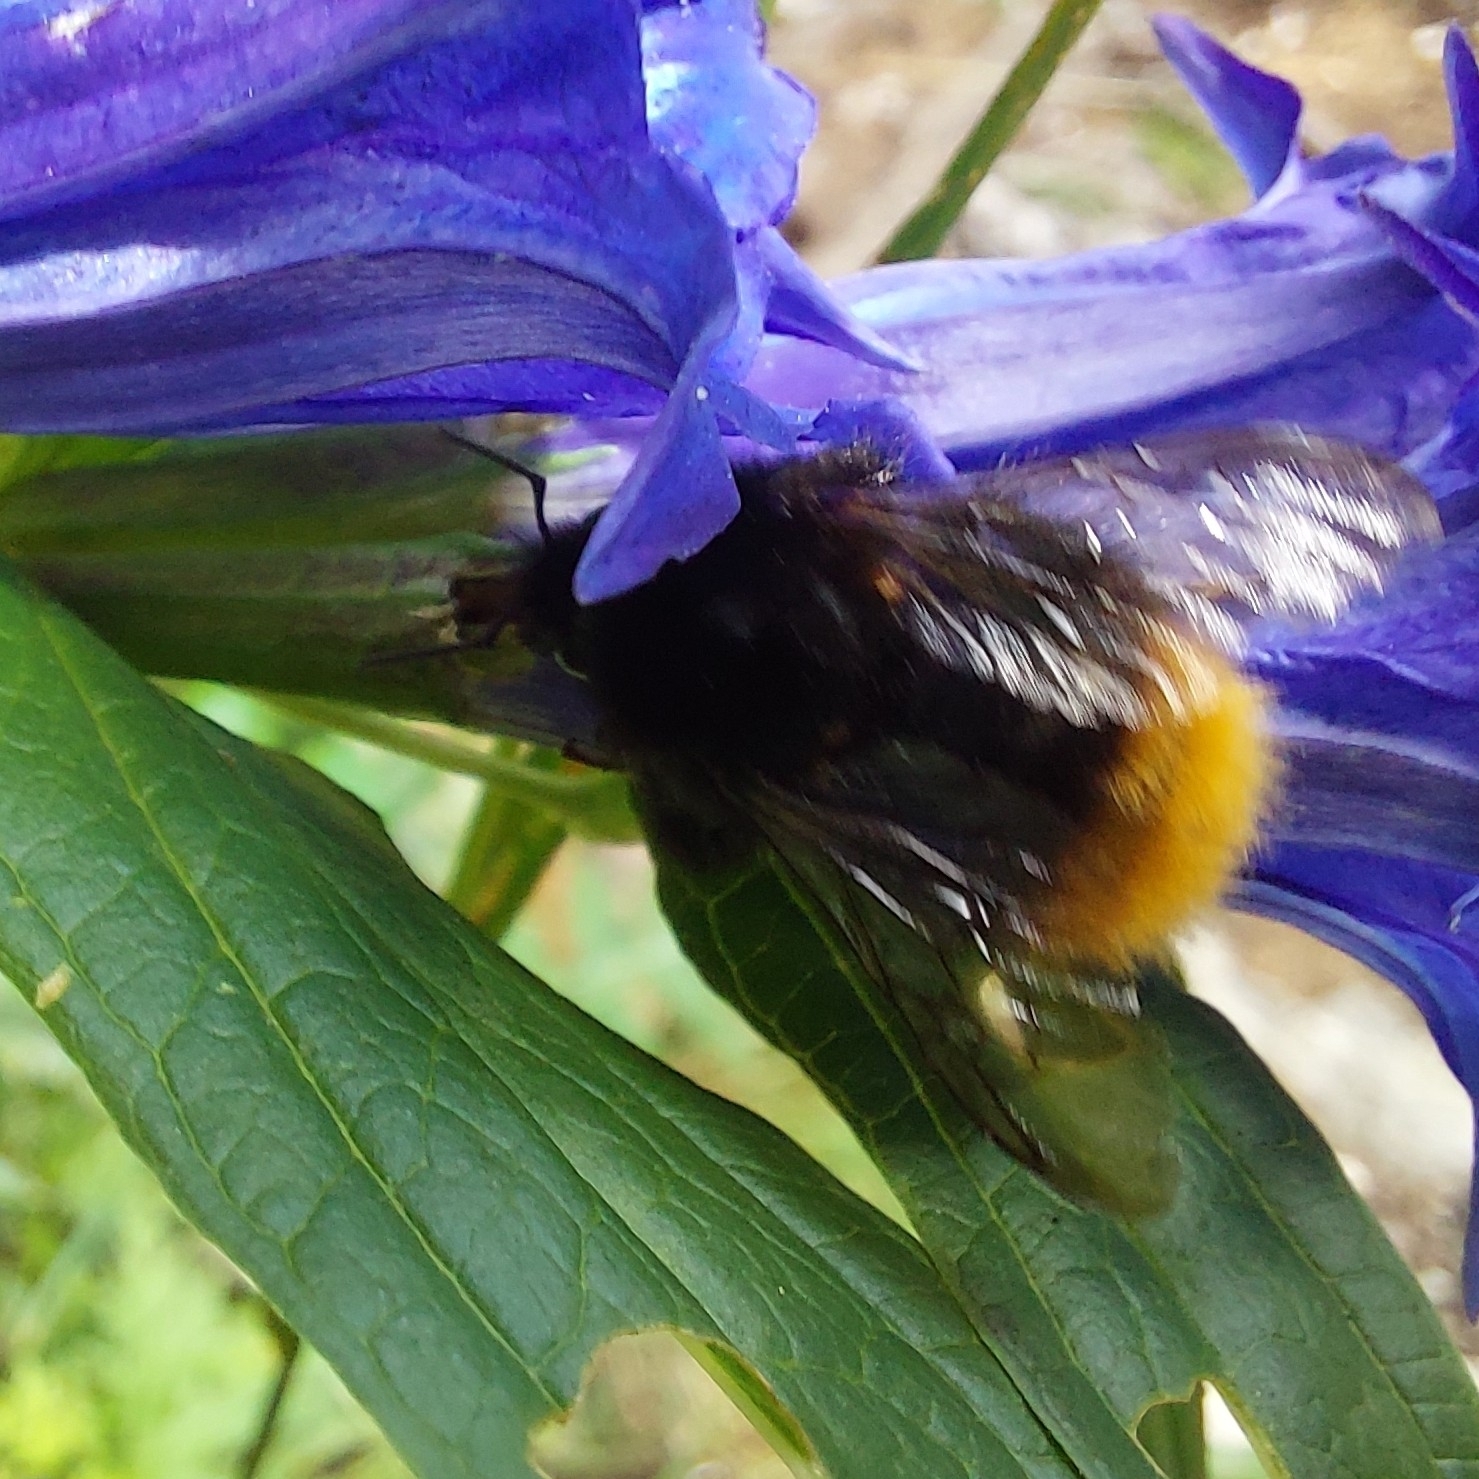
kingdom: Animalia
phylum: Arthropoda
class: Insecta
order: Hymenoptera
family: Apidae
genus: Bombus
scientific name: Bombus wurflenii
